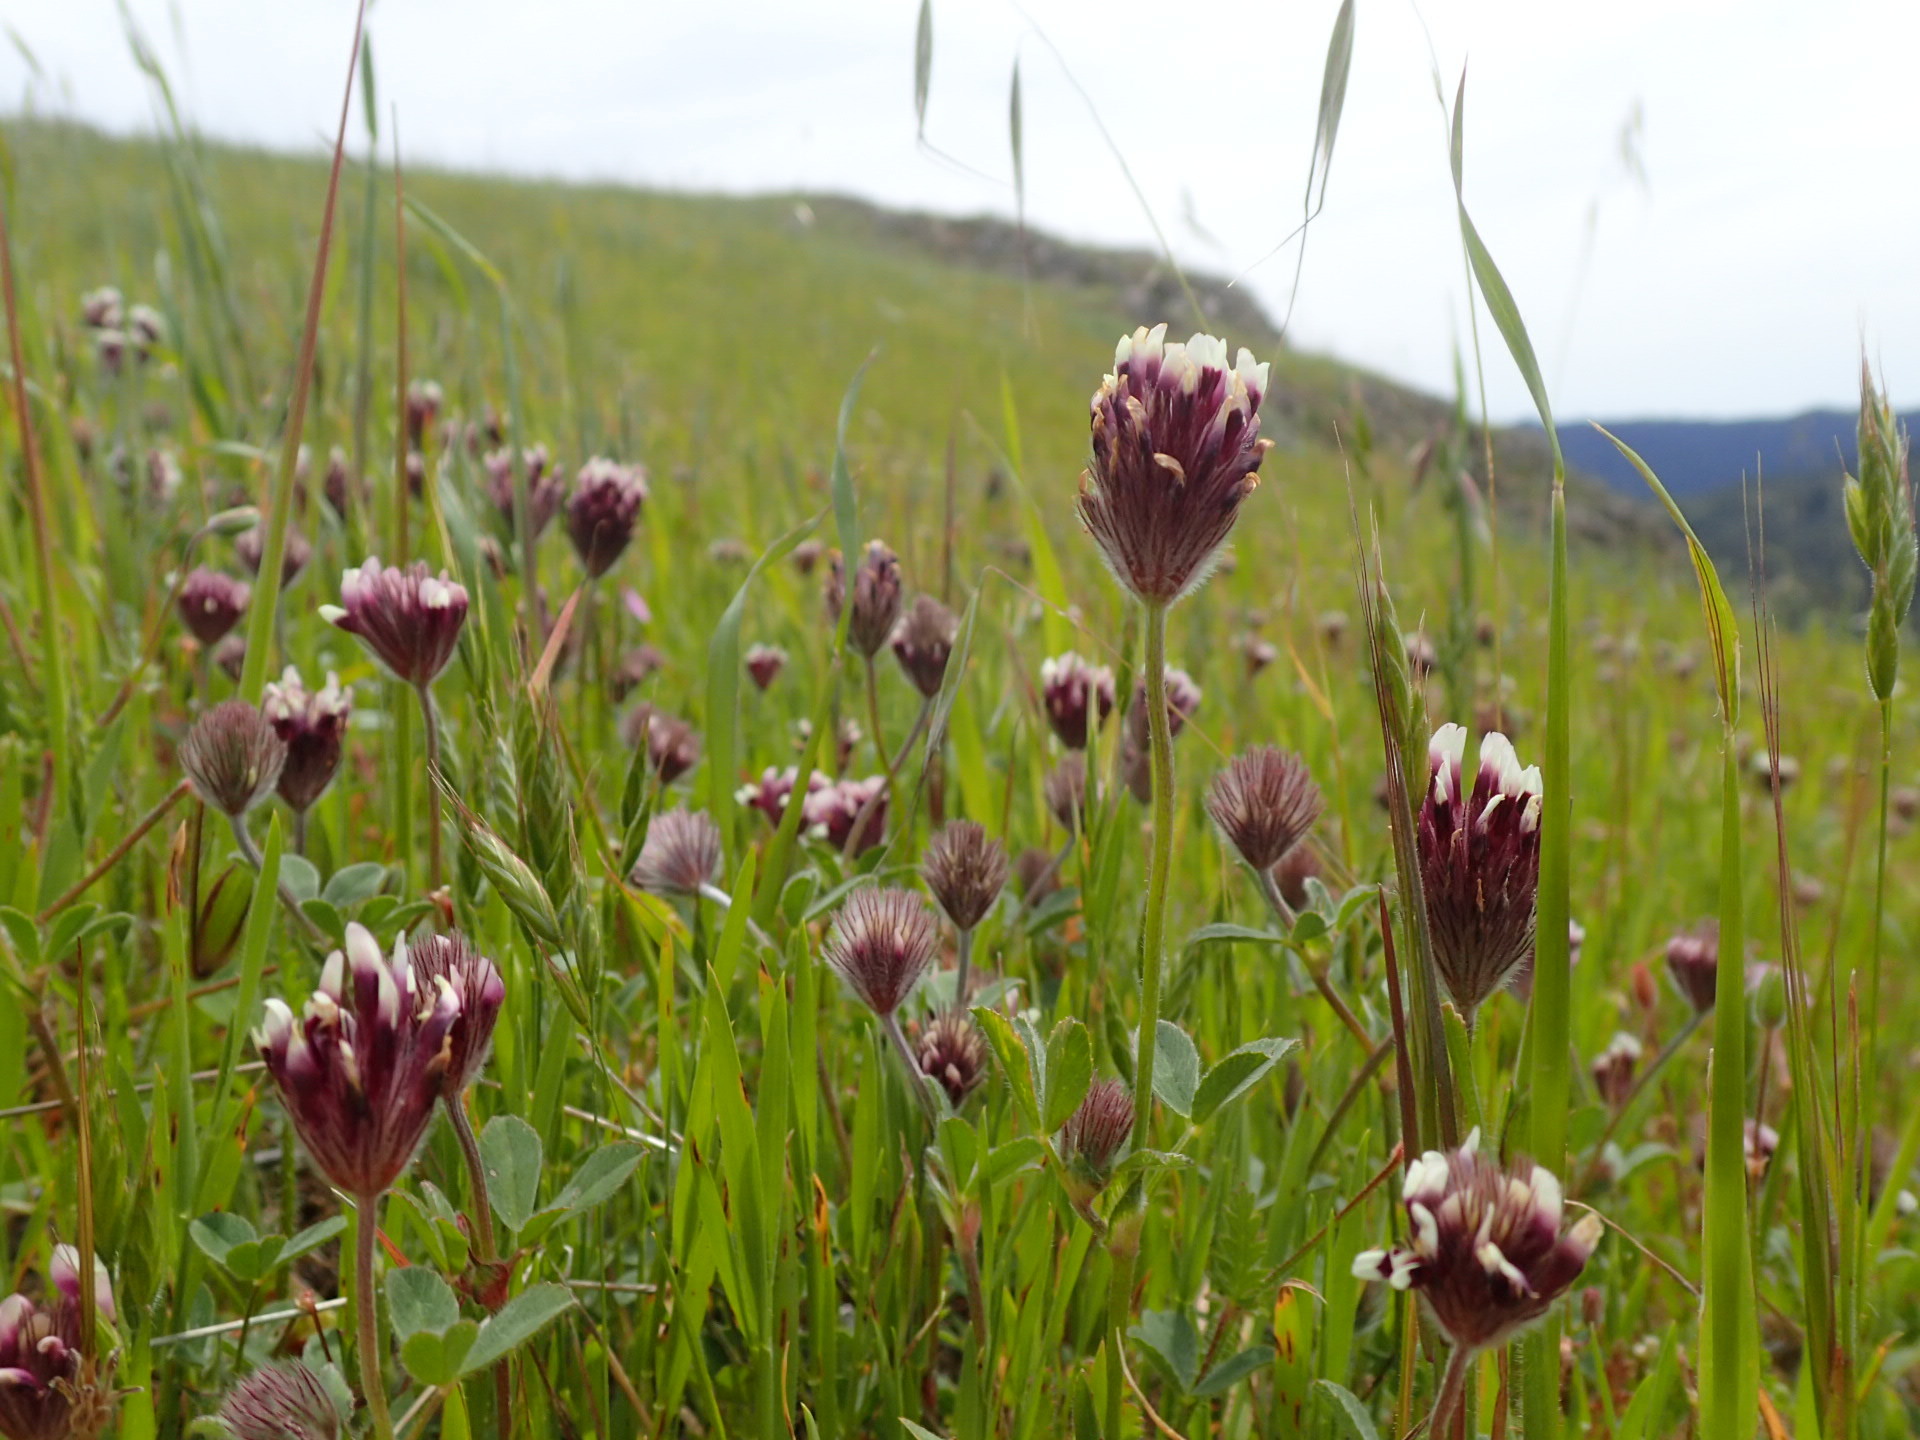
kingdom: Plantae
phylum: Tracheophyta
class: Magnoliopsida
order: Fabales
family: Fabaceae
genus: Trifolium
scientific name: Trifolium dichotomum
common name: Branched indian clover
